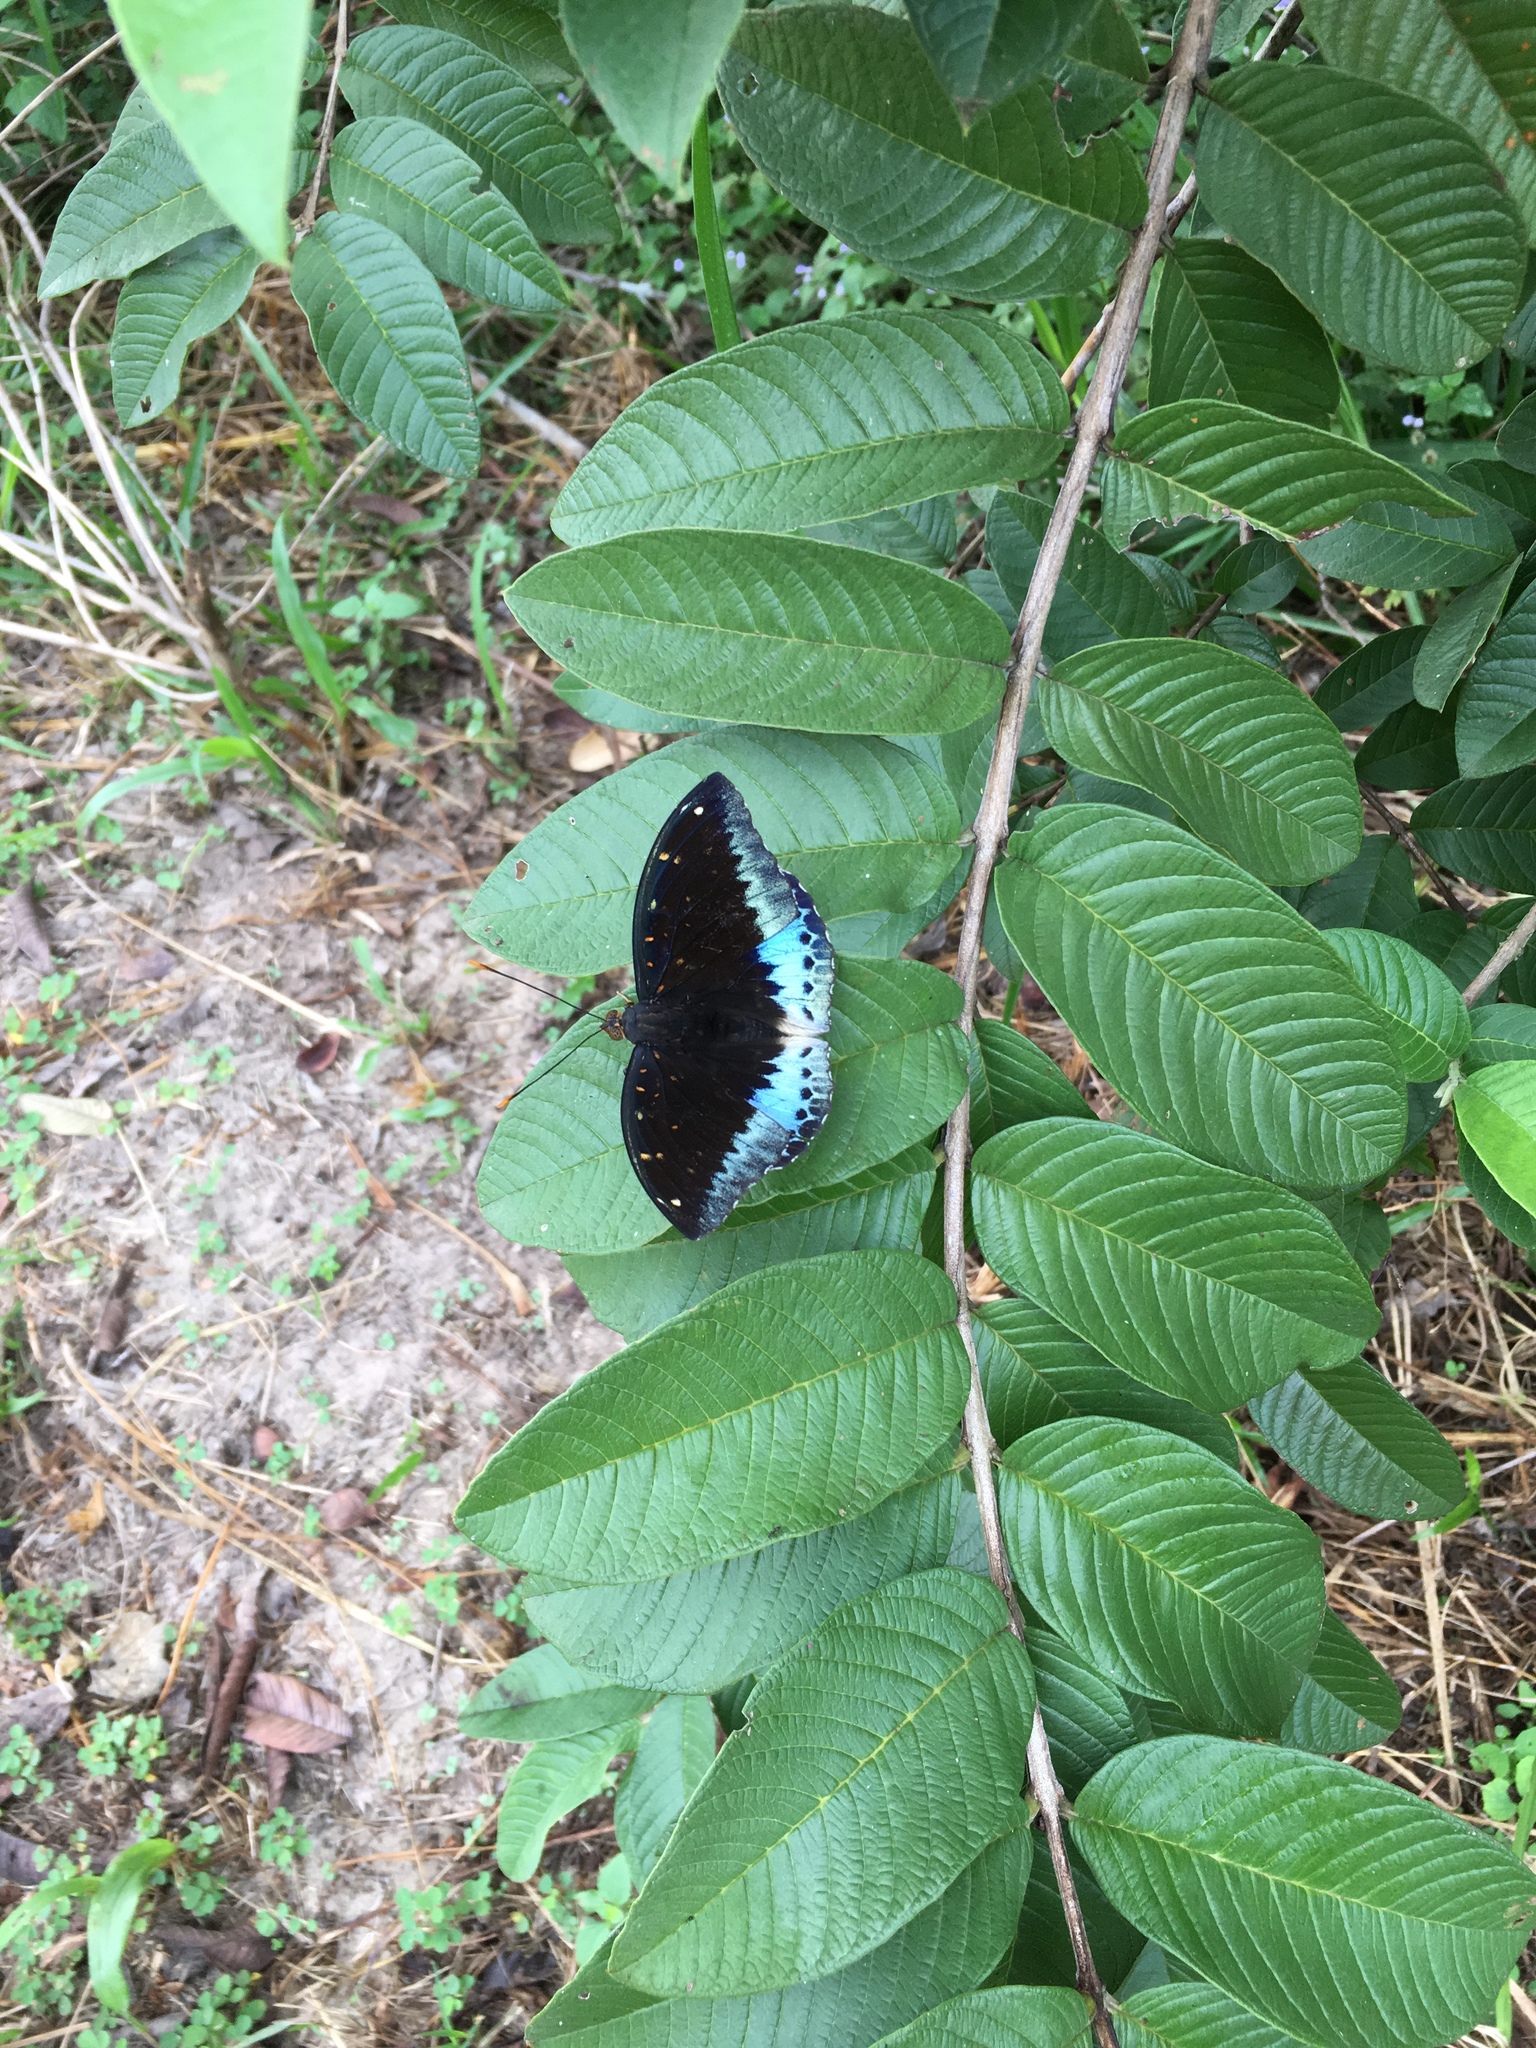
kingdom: Animalia
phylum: Arthropoda
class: Insecta
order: Lepidoptera
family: Nymphalidae
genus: Lexias
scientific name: Lexias pardalis
